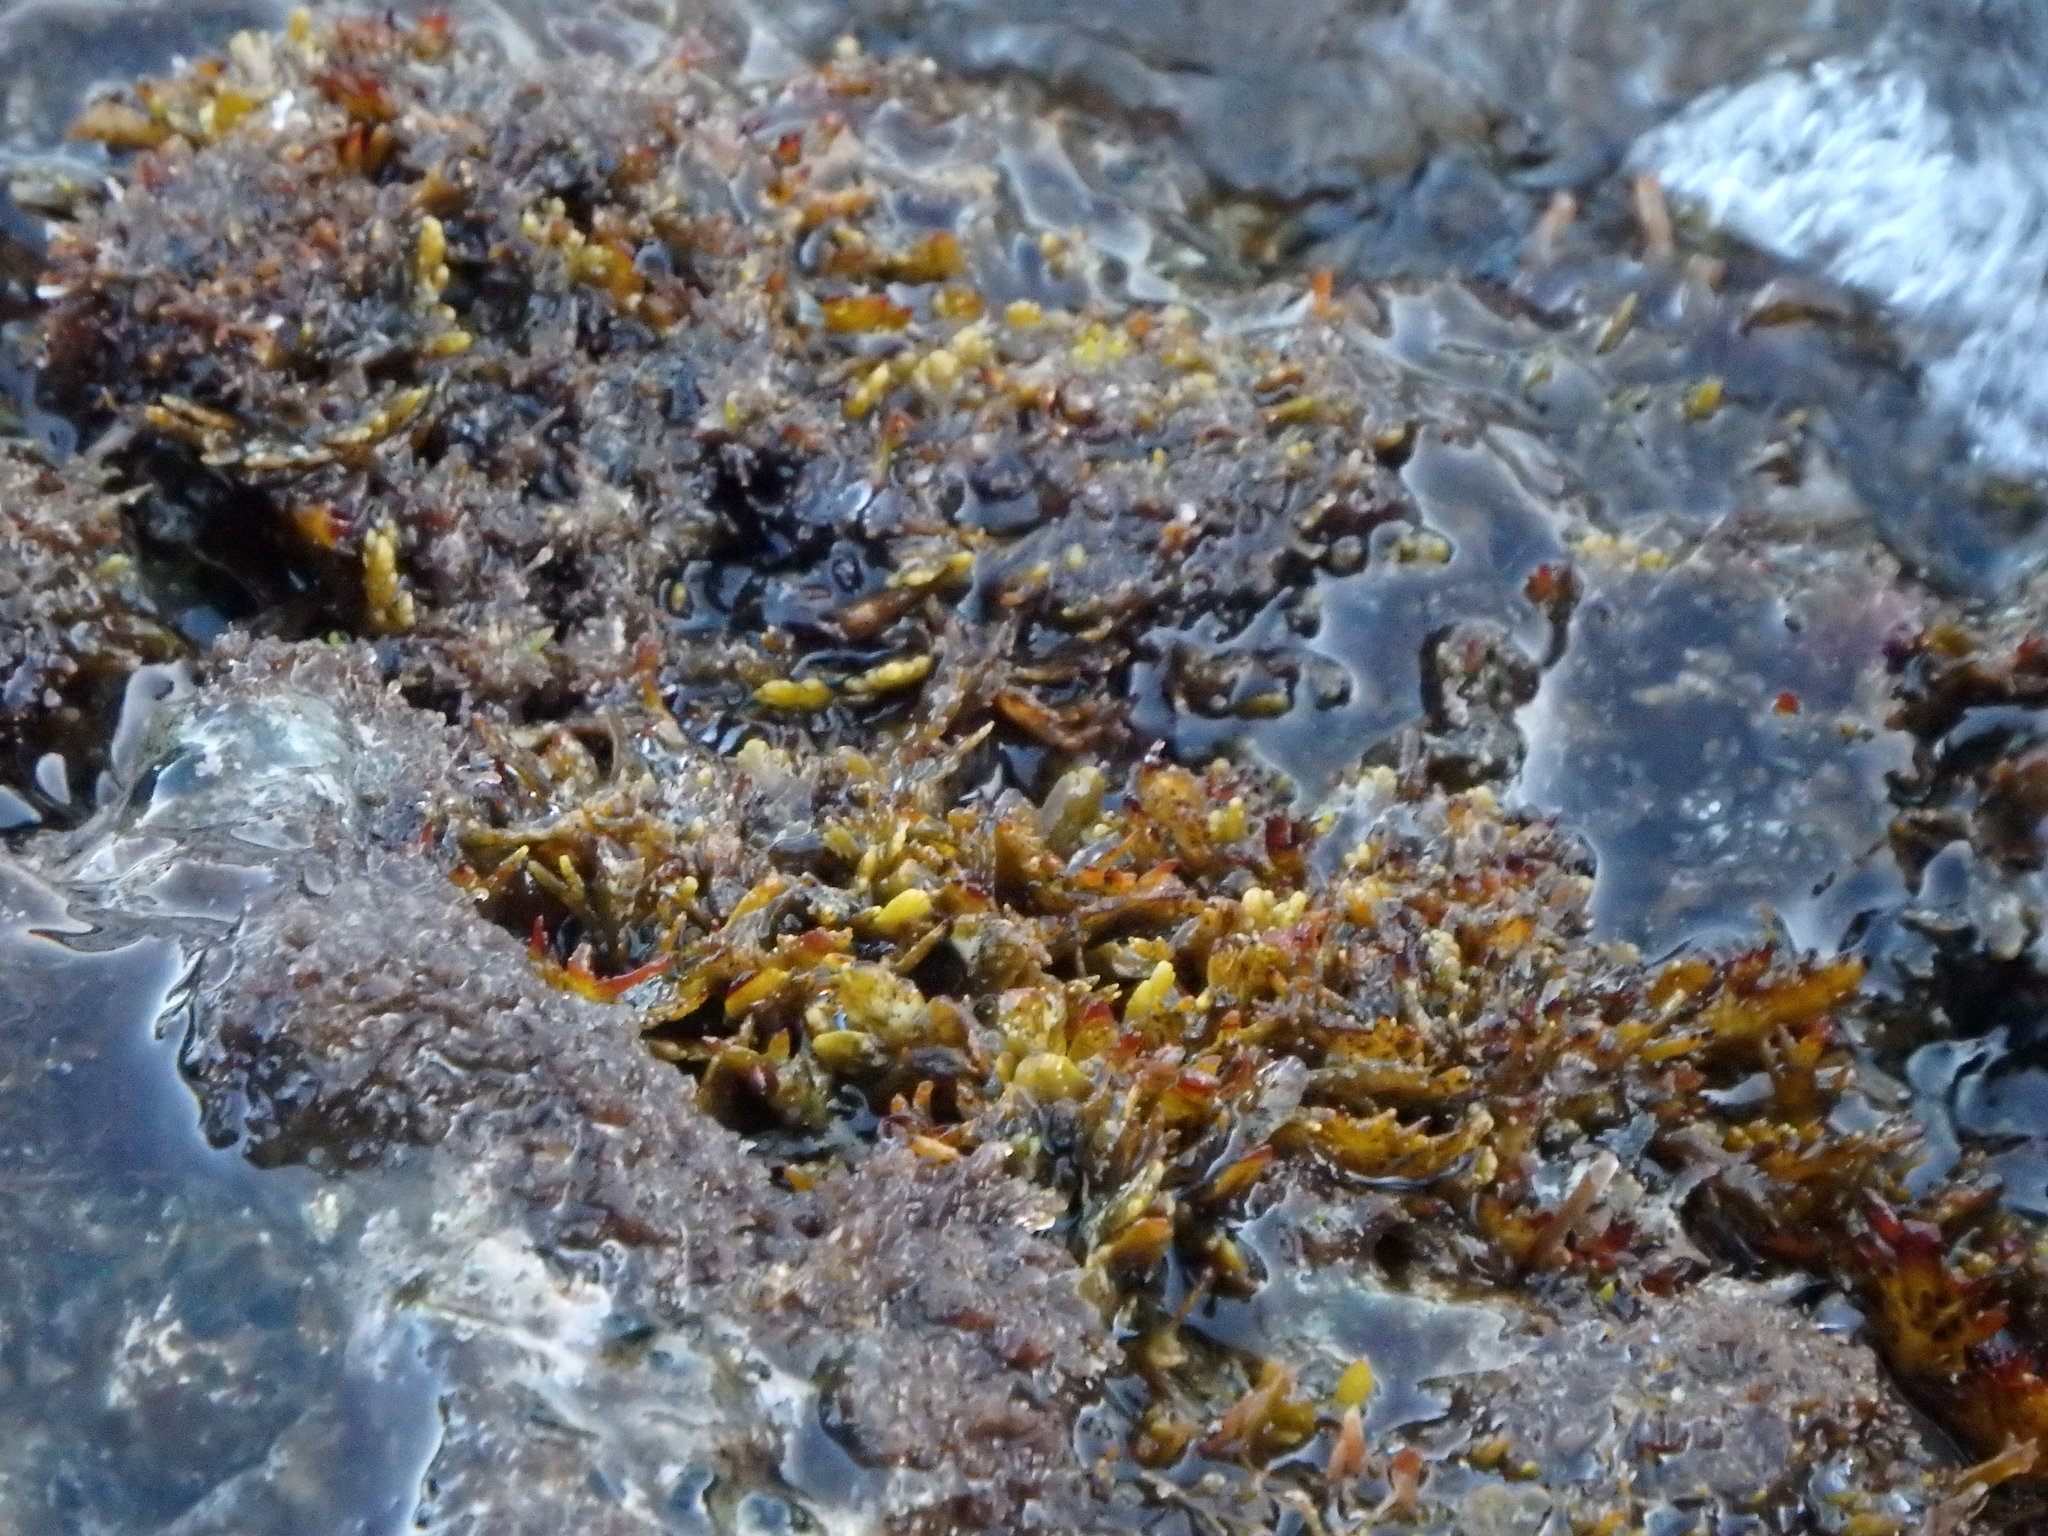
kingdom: Chromista
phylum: Ochrophyta
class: Phaeophyceae
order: Fucales
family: Sargassaceae
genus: Cystoseira
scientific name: Cystoseira compressa
